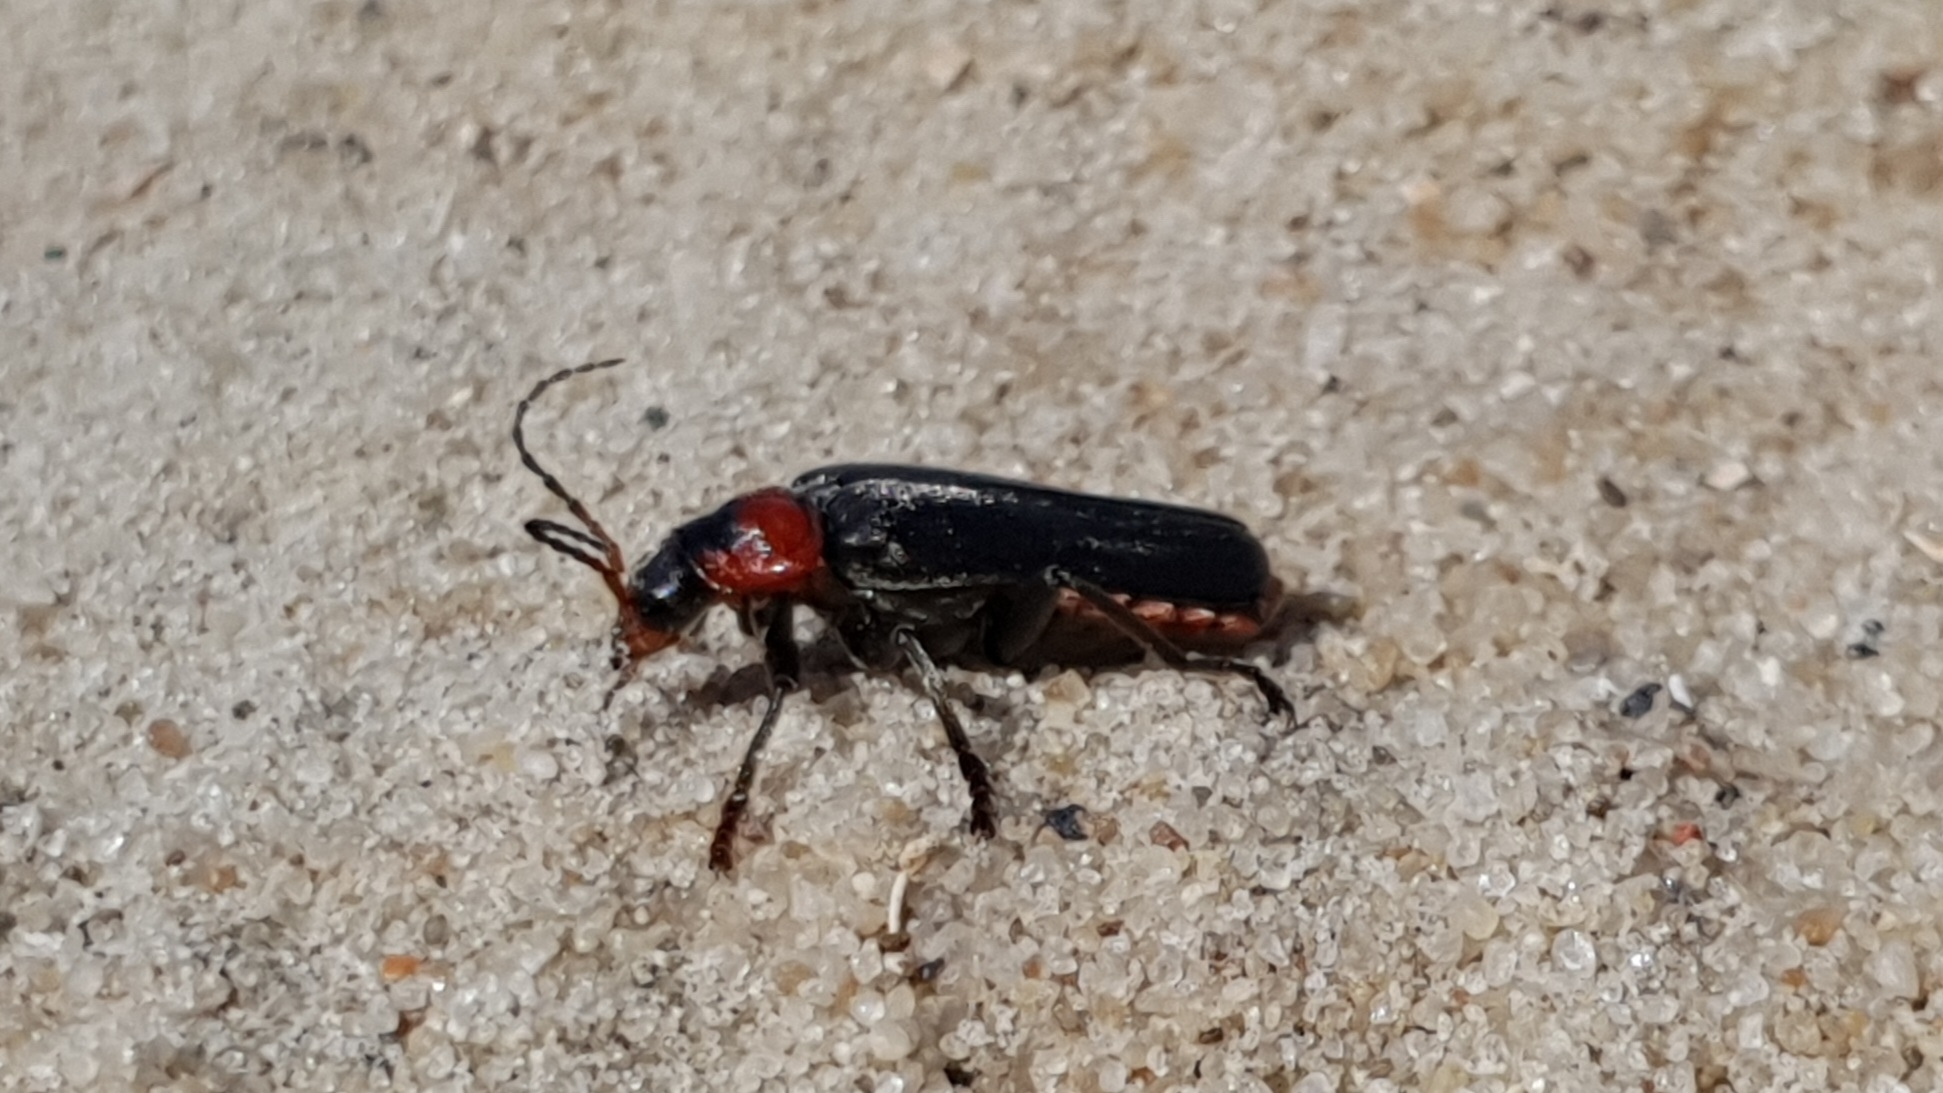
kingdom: Animalia
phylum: Arthropoda
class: Insecta
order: Coleoptera
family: Cantharidae
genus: Cantharis
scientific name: Cantharis fusca
